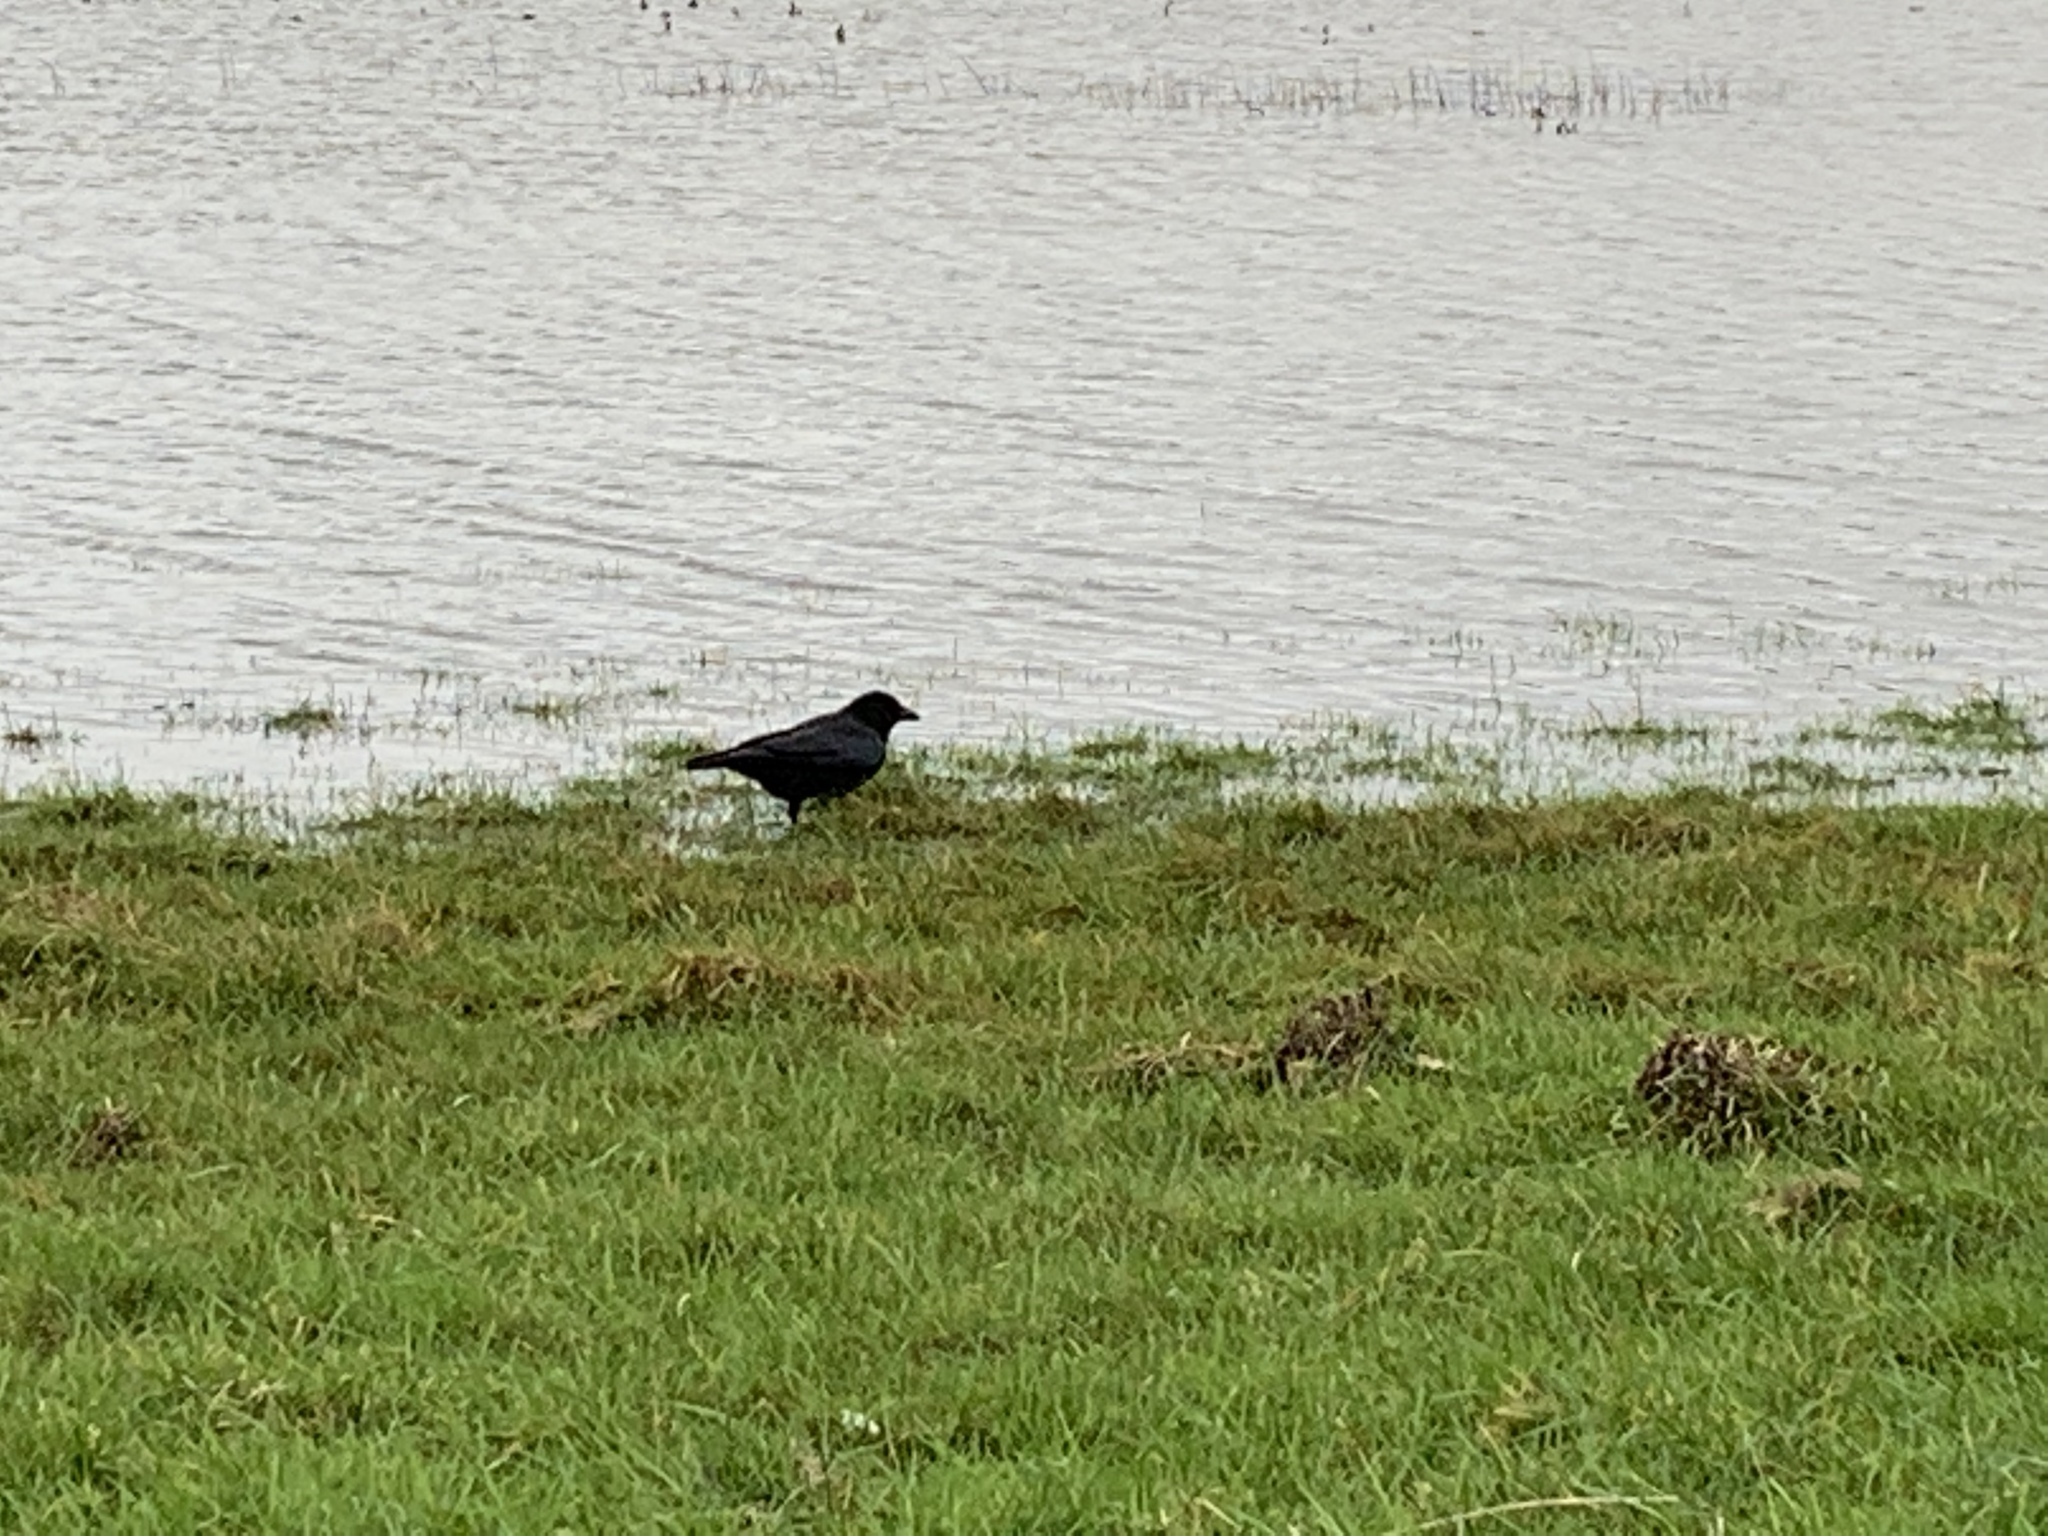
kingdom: Animalia
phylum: Chordata
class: Aves
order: Passeriformes
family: Corvidae
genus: Corvus
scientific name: Corvus corone
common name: Carrion crow
